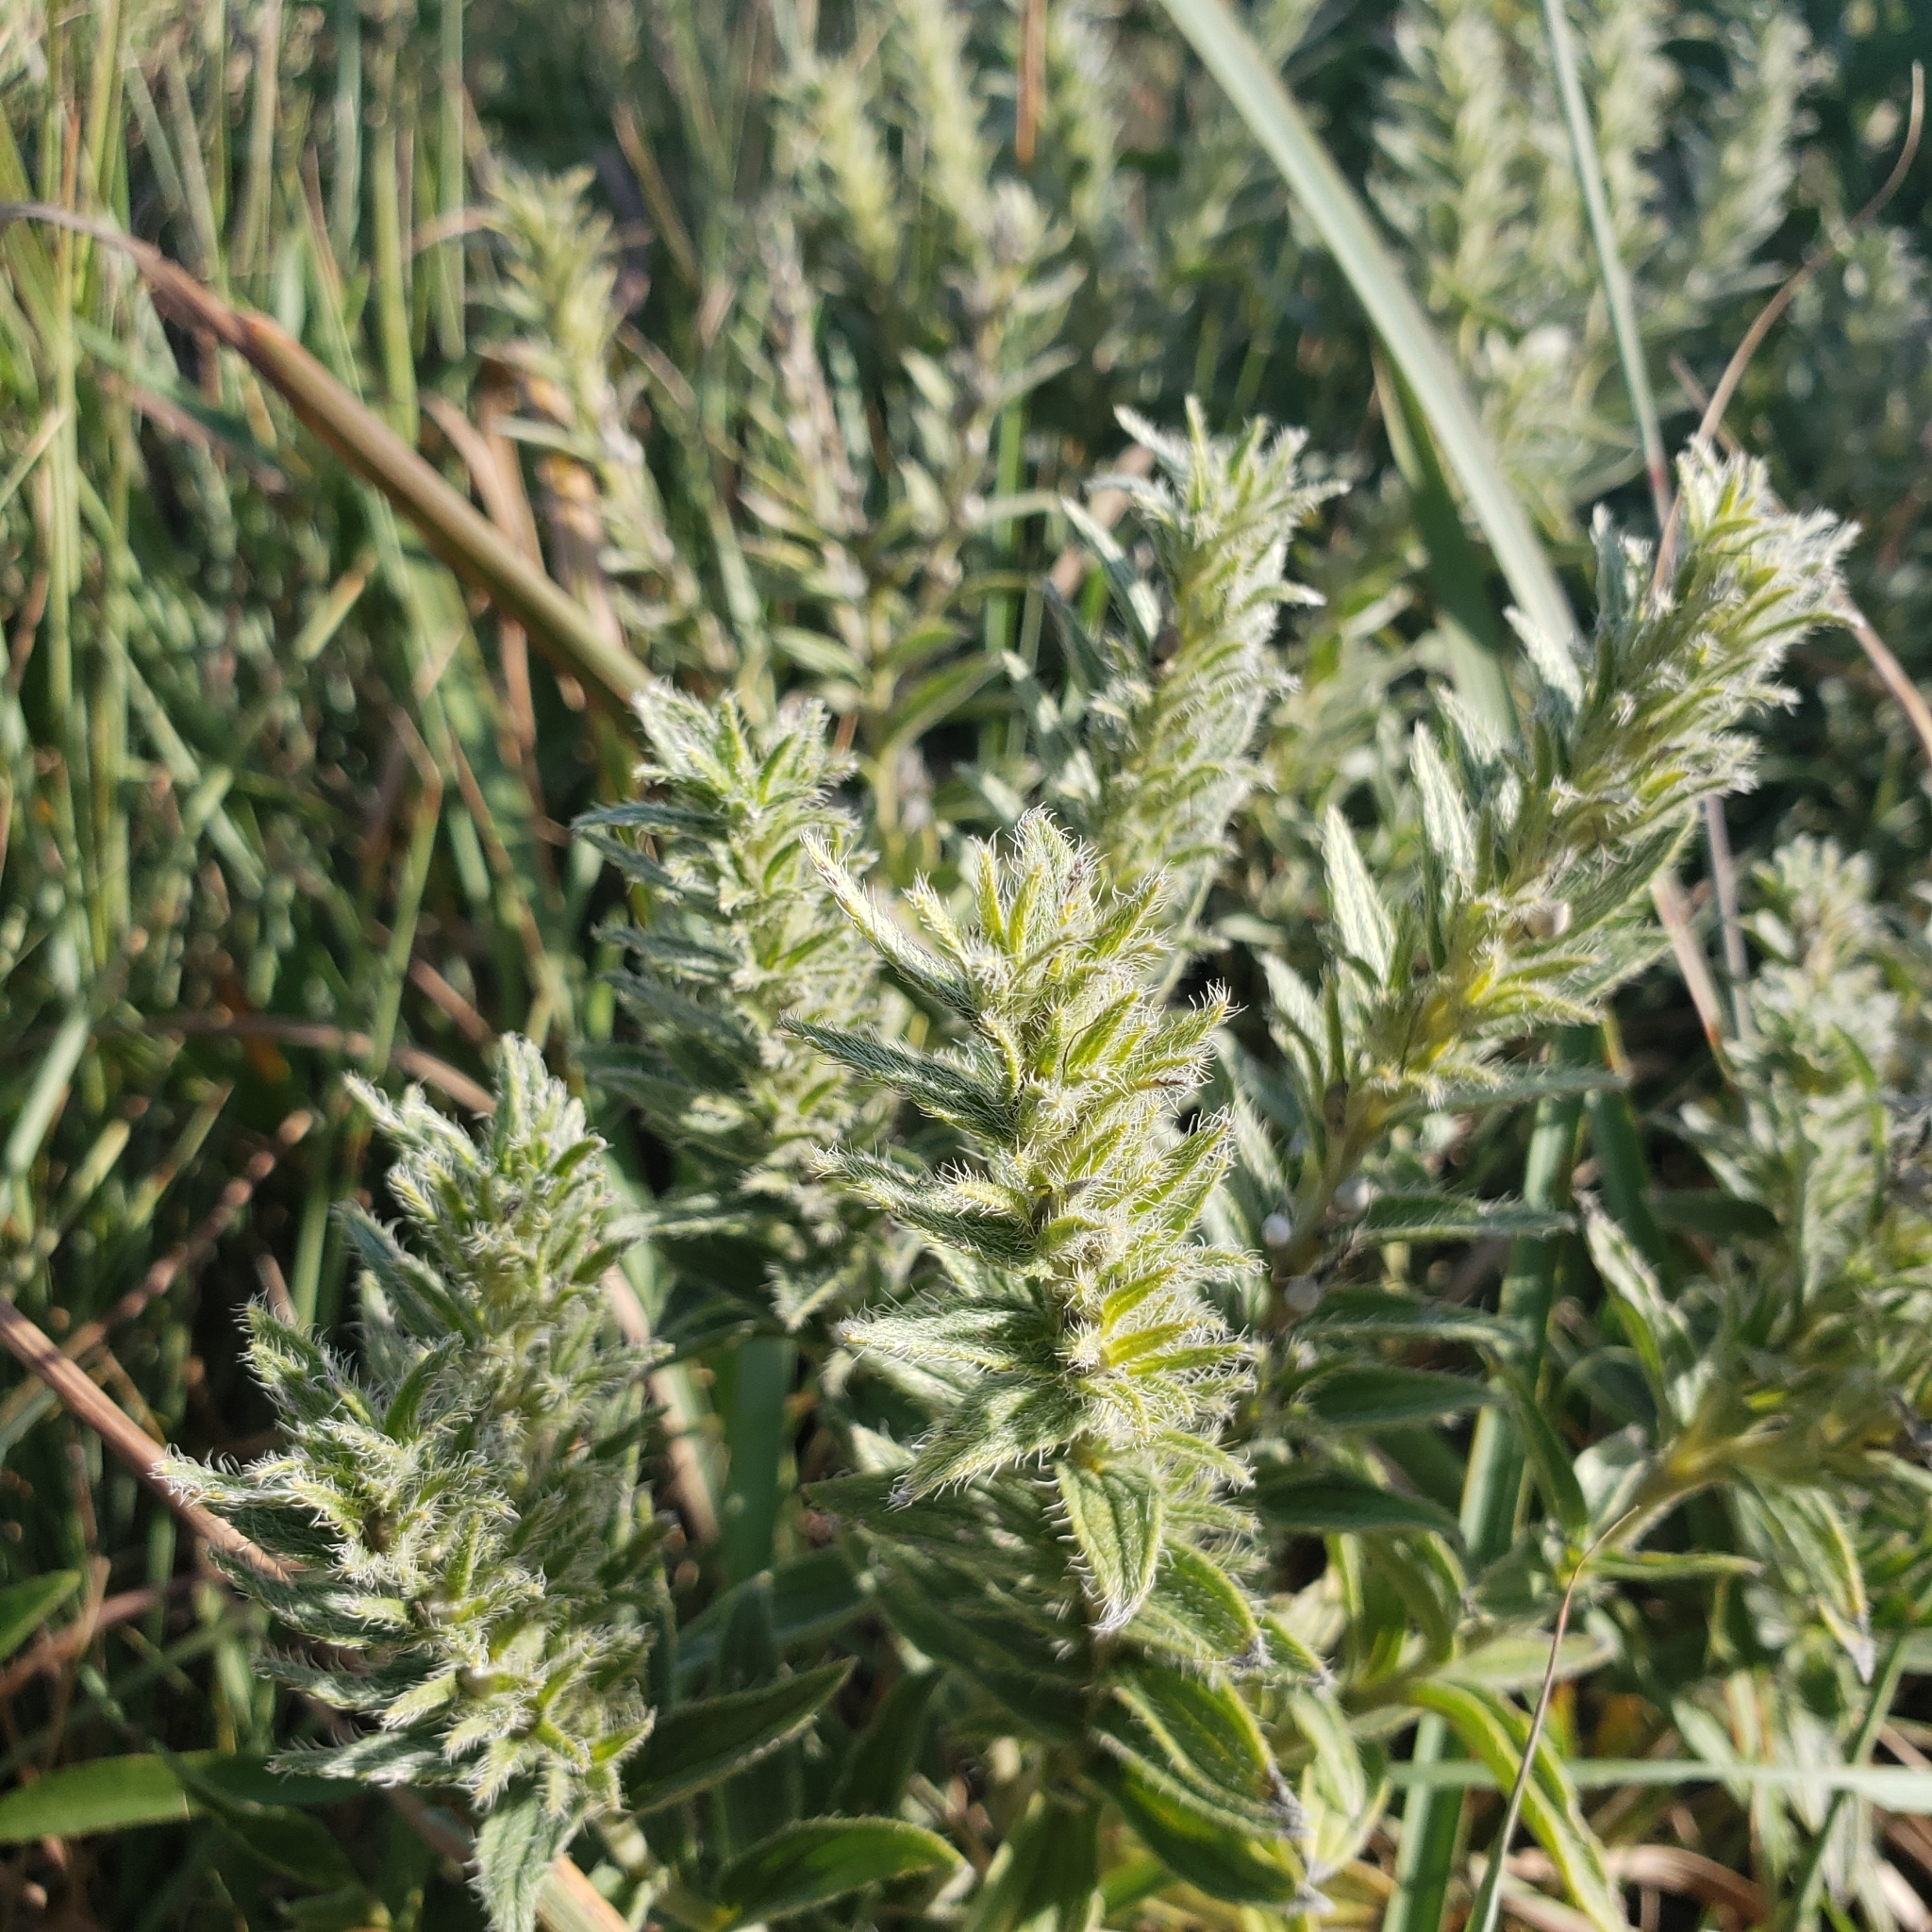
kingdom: Plantae
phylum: Tracheophyta
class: Magnoliopsida
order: Boraginales
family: Boraginaceae
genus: Lithospermum
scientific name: Lithospermum occidentale
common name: Western false gromwell
